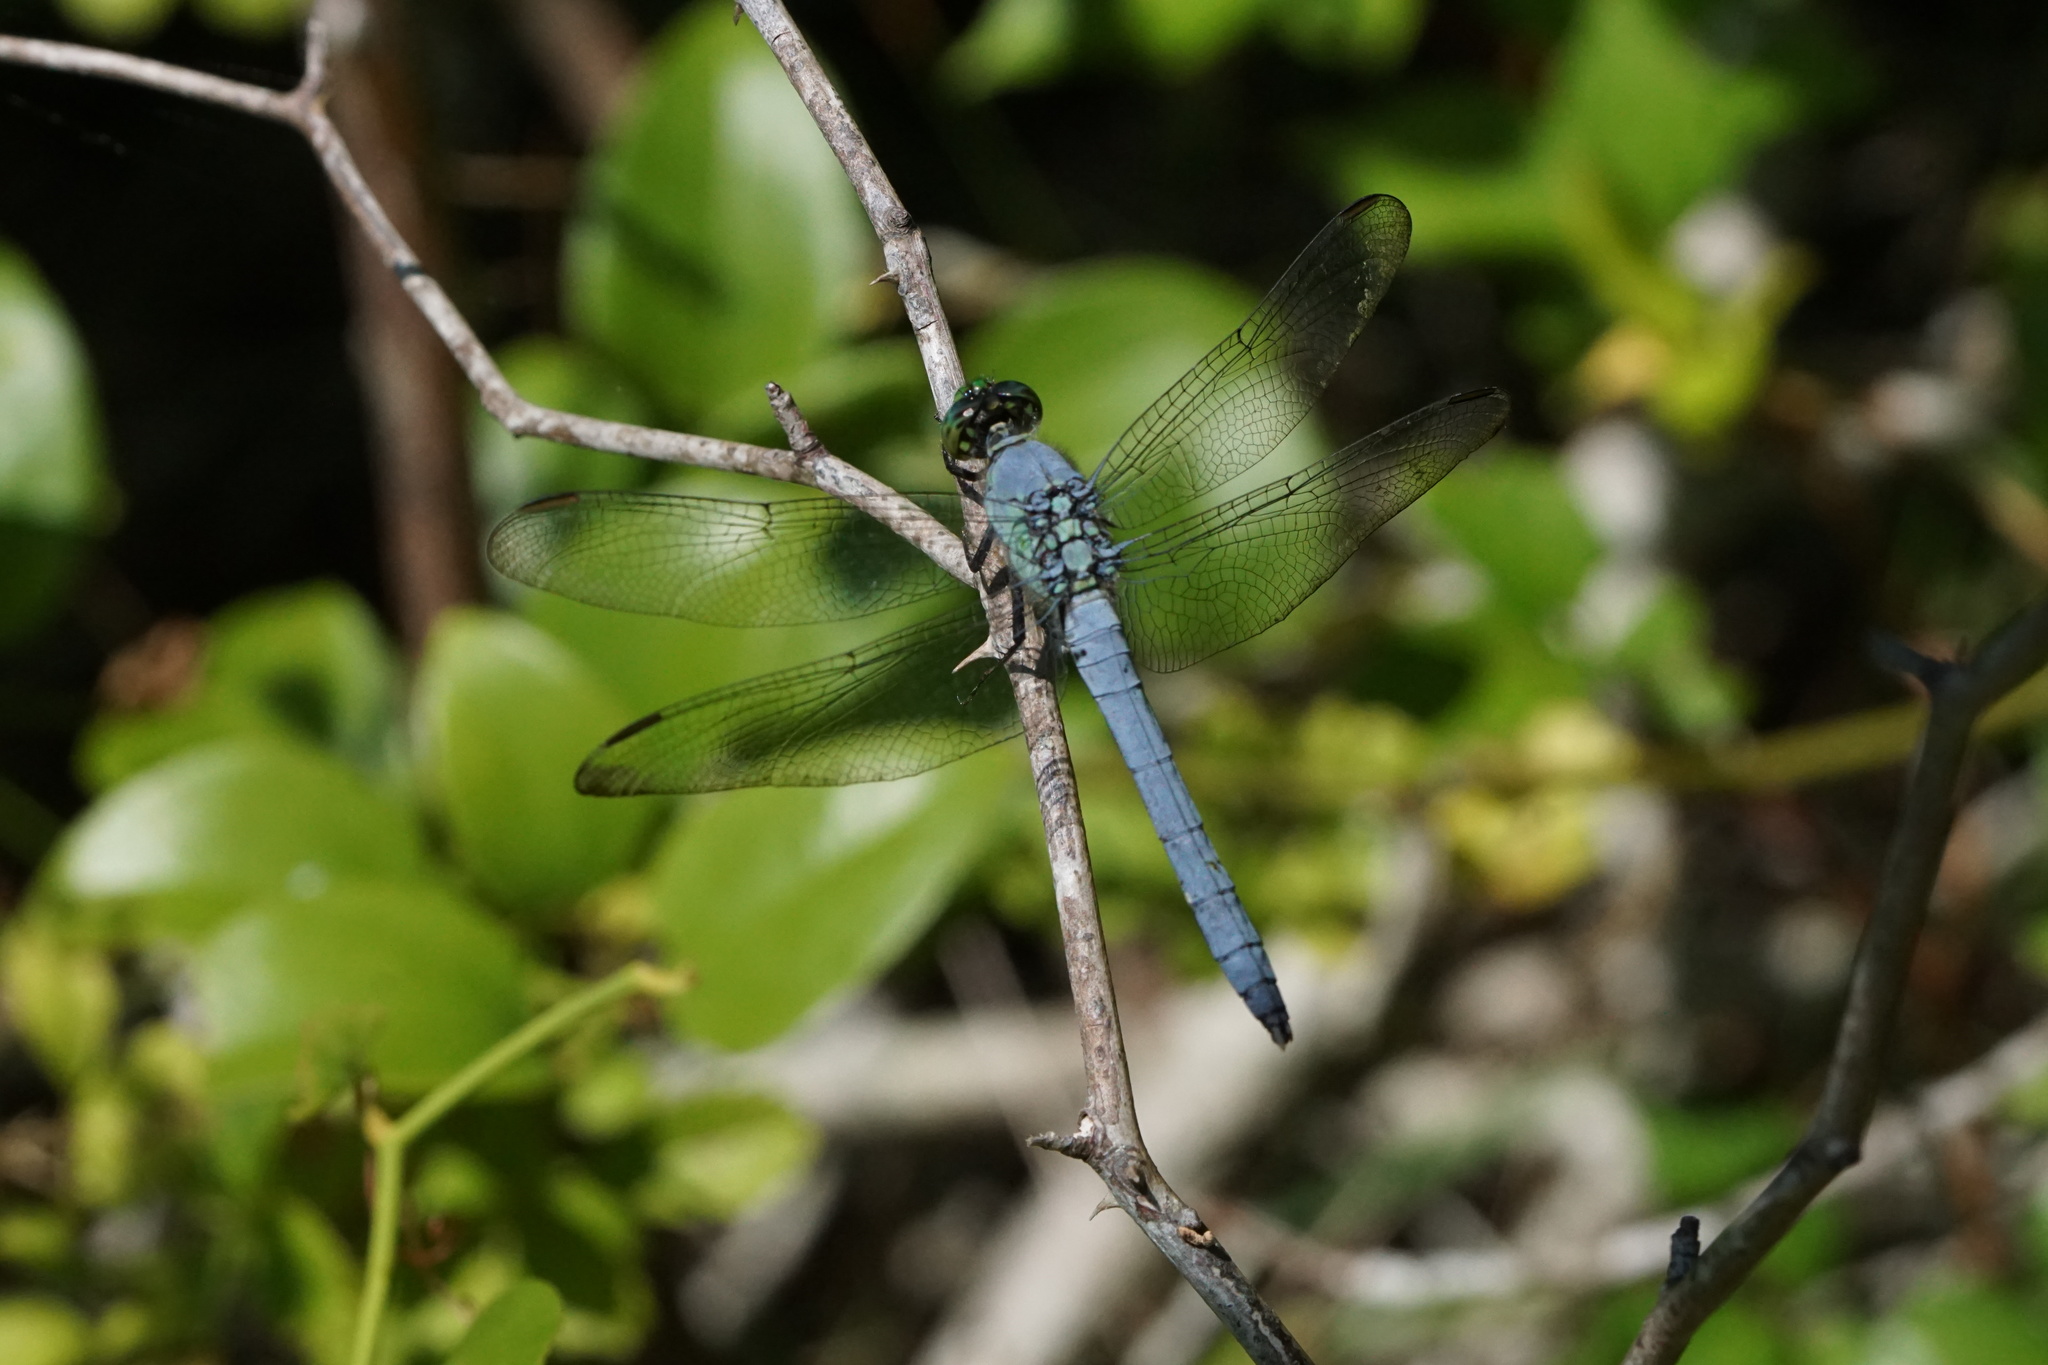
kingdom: Animalia
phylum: Arthropoda
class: Insecta
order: Odonata
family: Libellulidae
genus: Erythemis
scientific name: Erythemis simplicicollis
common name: Eastern pondhawk
